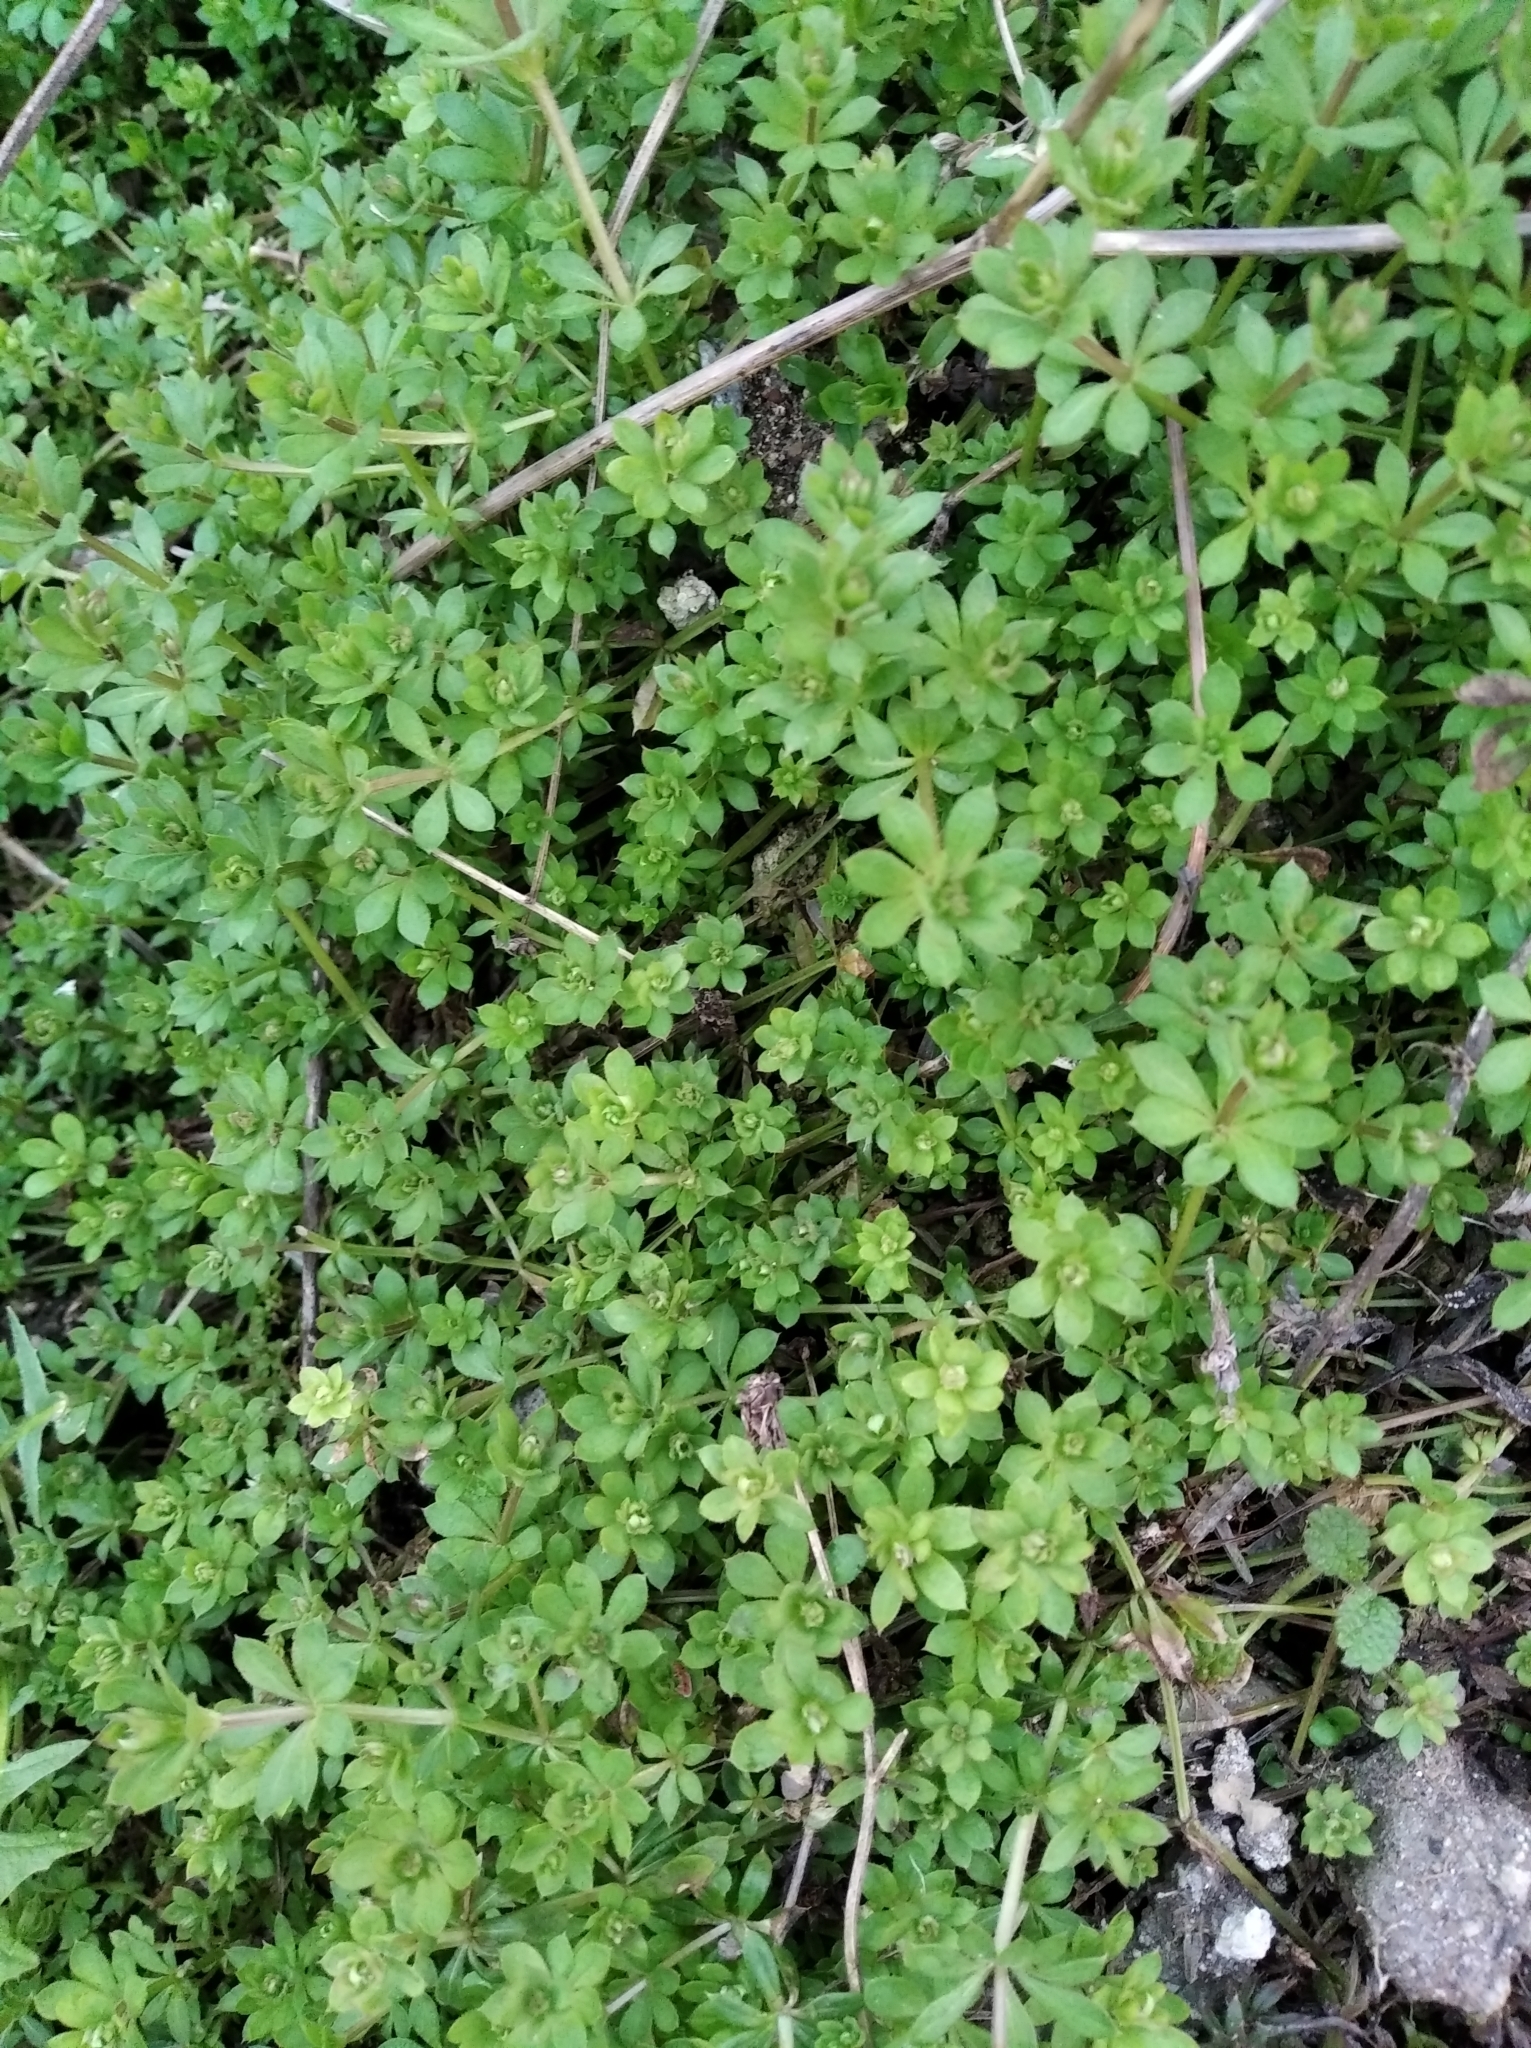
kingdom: Plantae
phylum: Tracheophyta
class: Magnoliopsida
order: Gentianales
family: Rubiaceae
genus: Galium
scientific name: Galium aparine
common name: Cleavers
